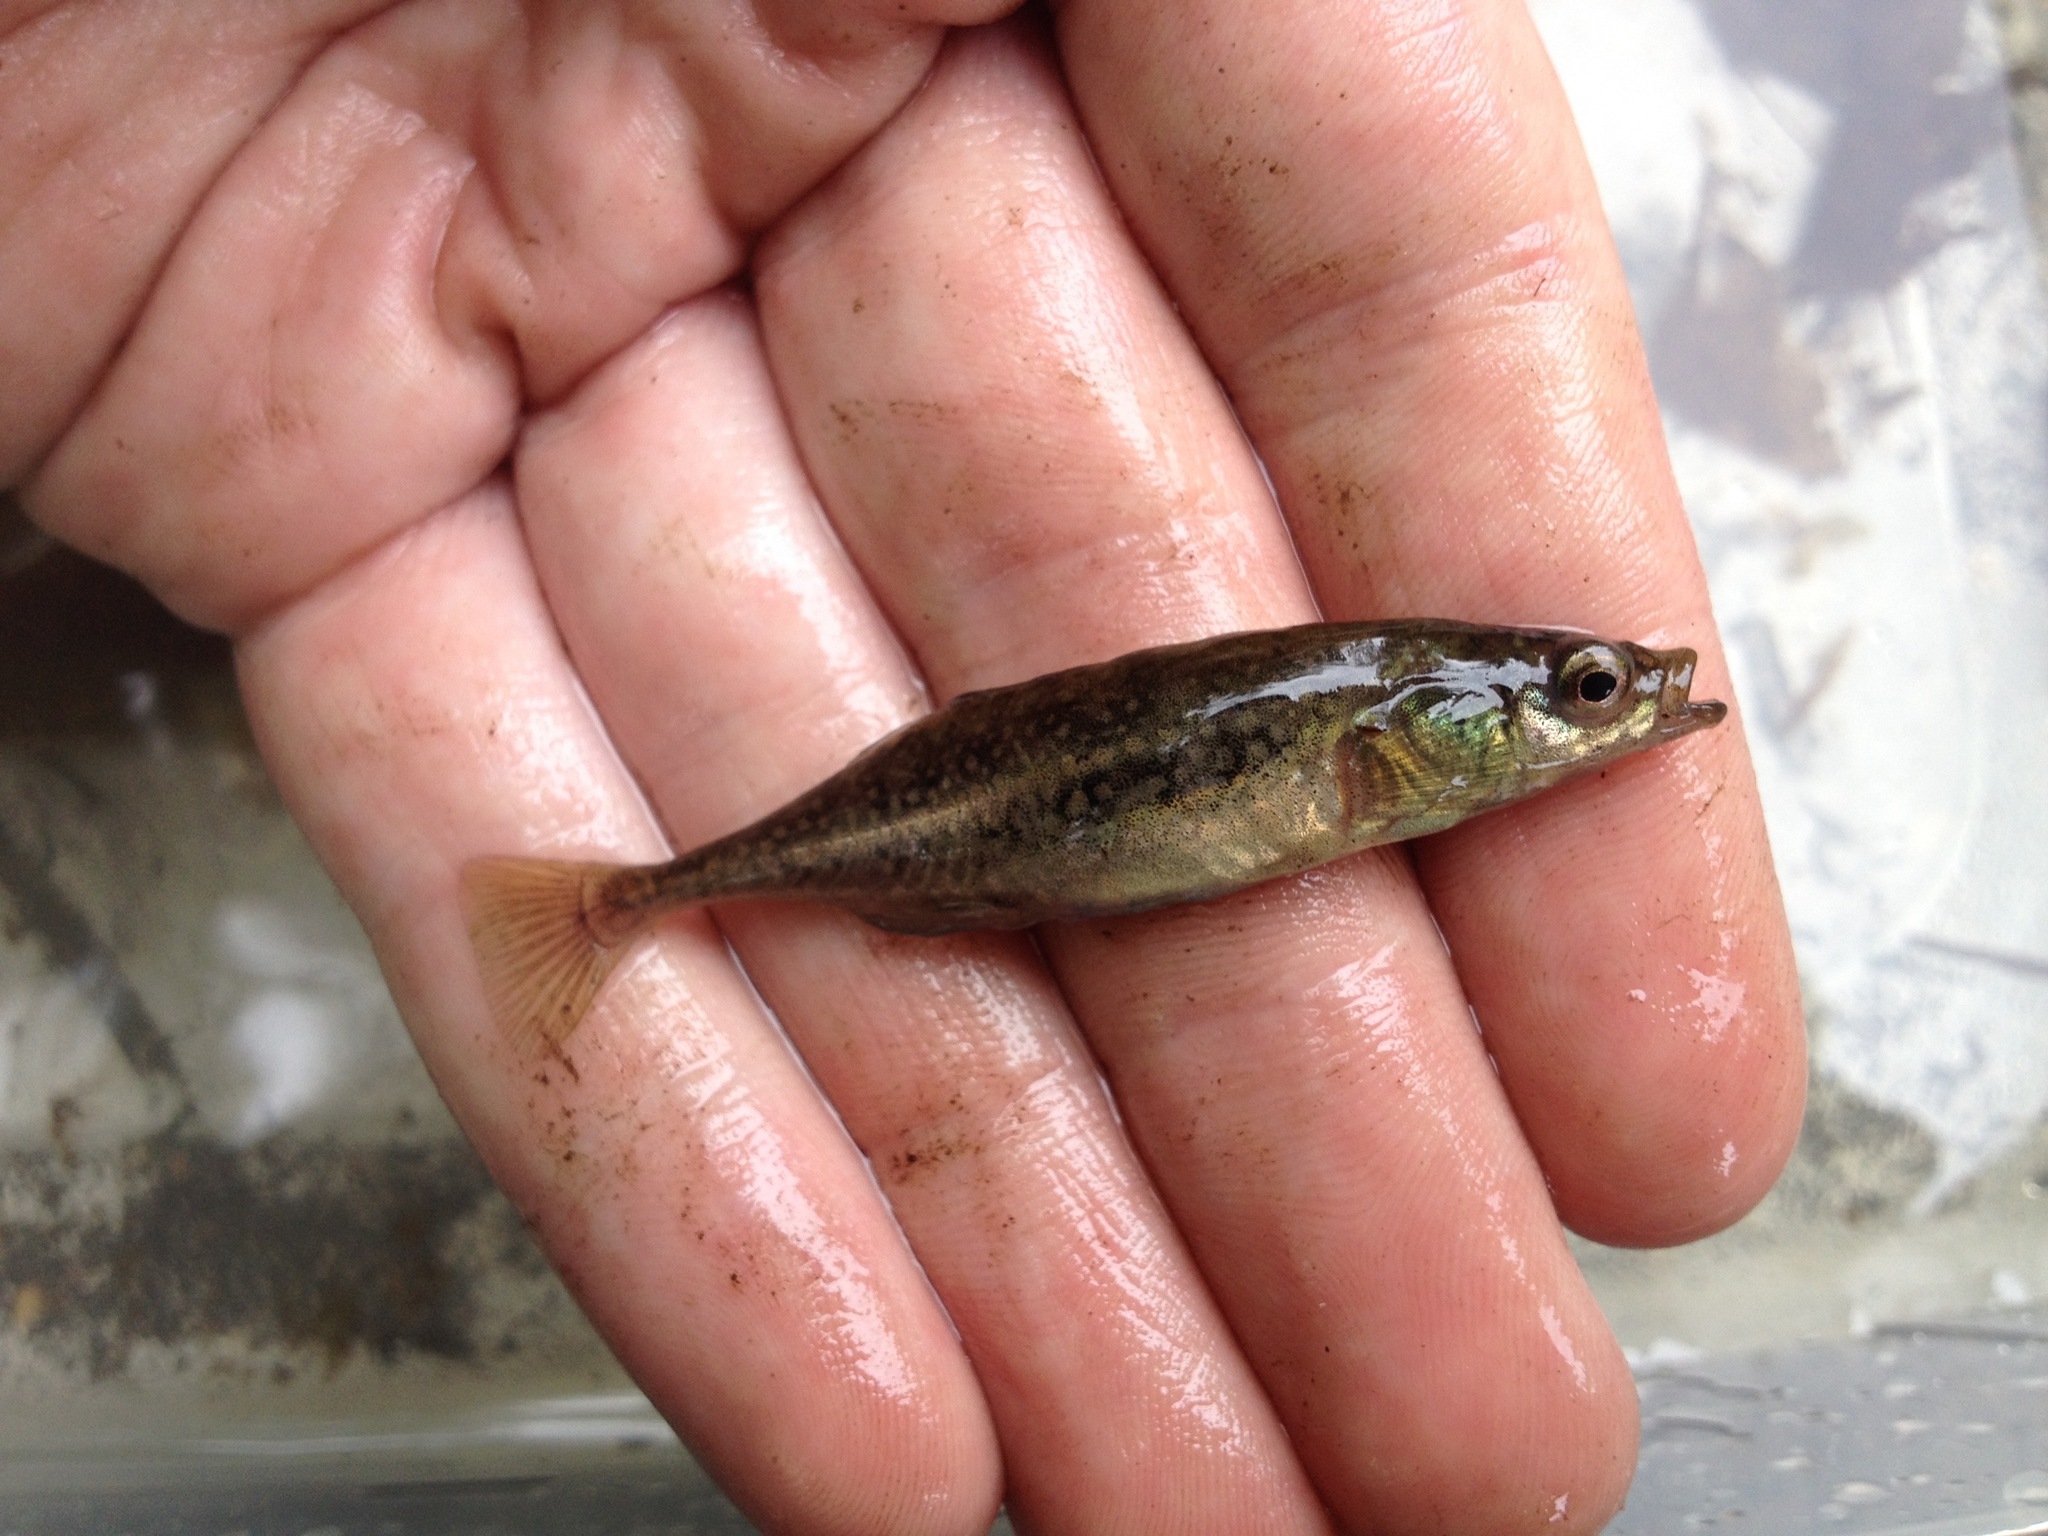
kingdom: Animalia
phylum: Chordata
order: Gasterosteiformes
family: Gasterosteidae
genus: Culaea
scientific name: Culaea inconstans
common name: Brook stickleback
